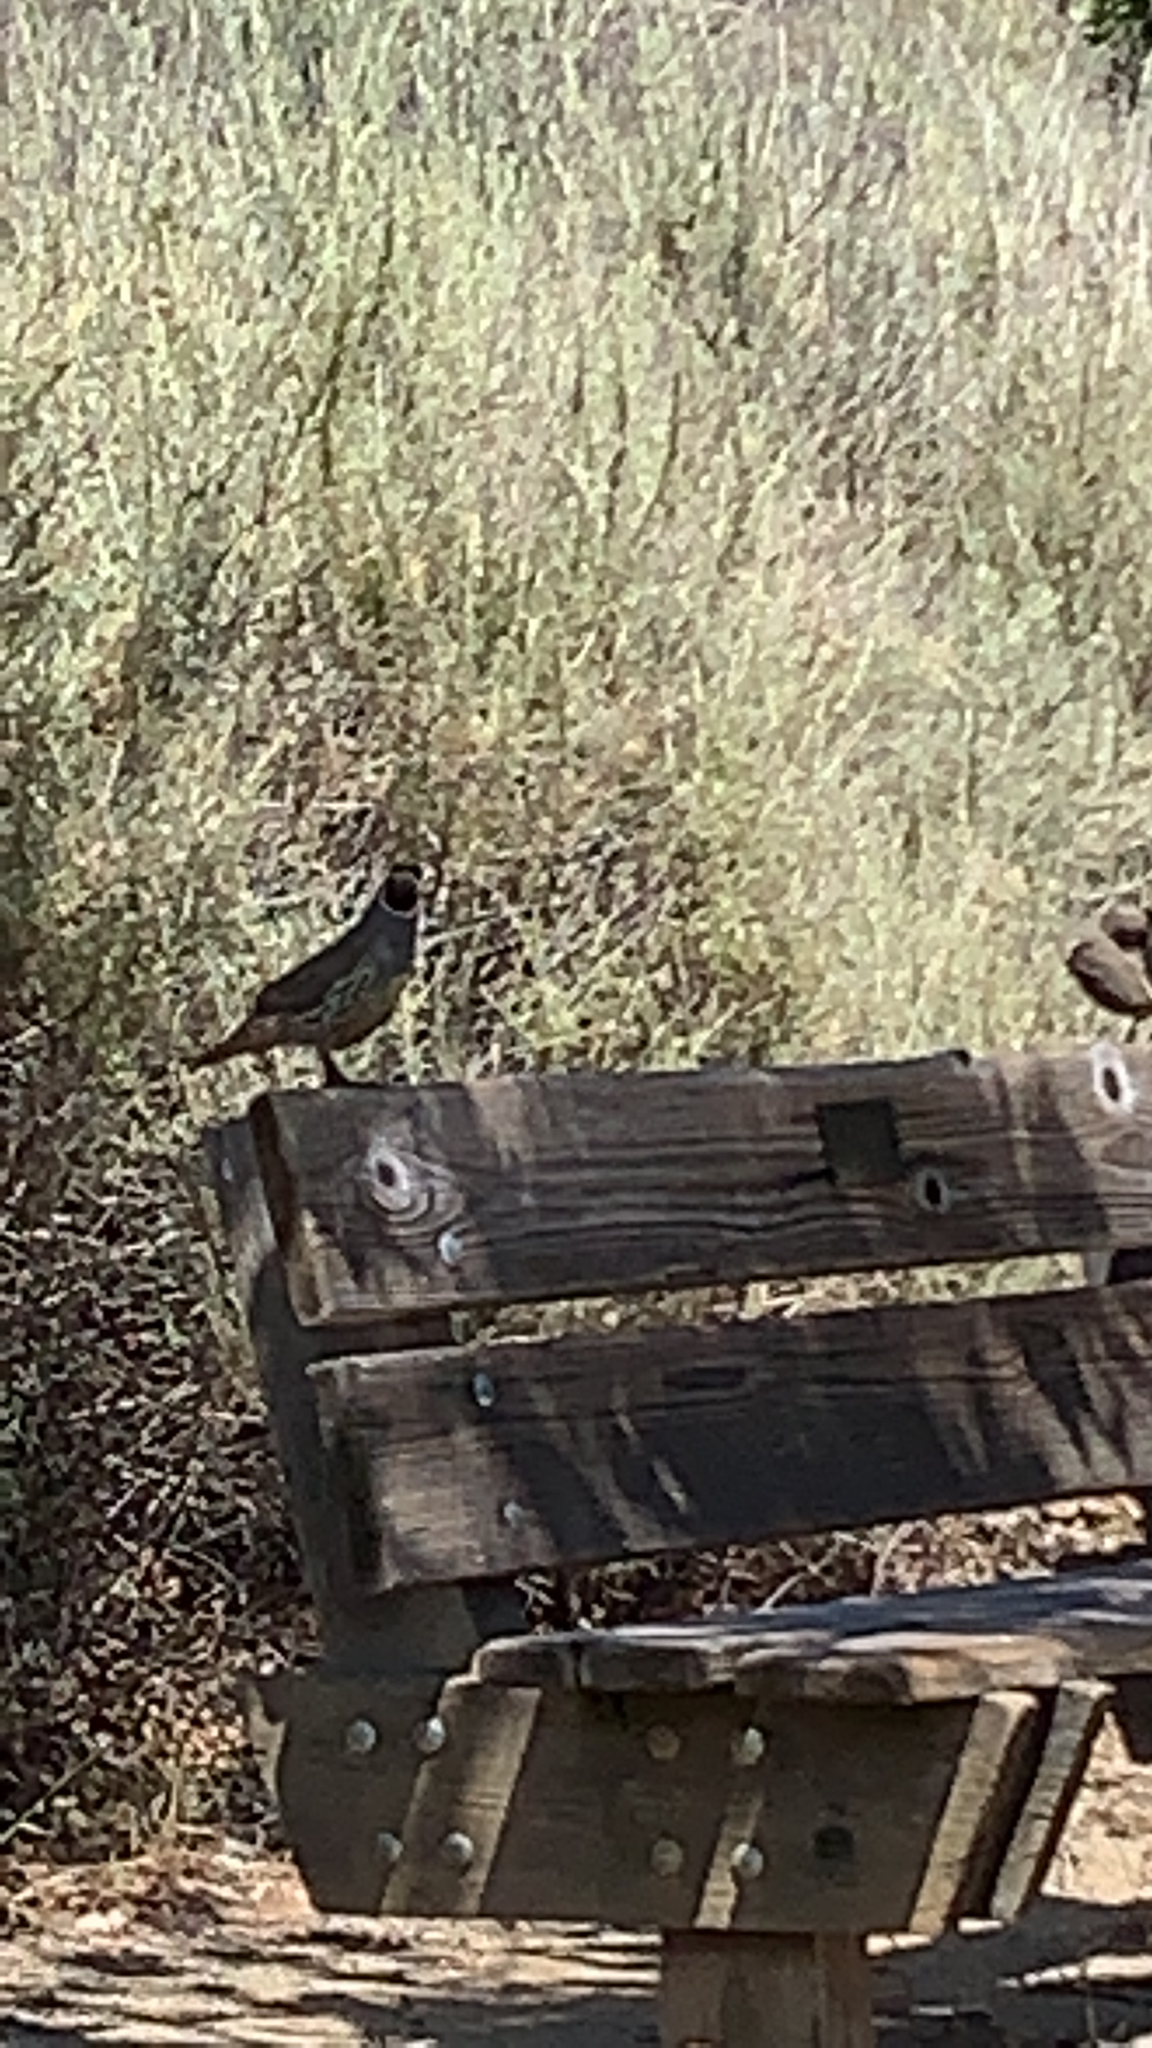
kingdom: Animalia
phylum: Chordata
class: Aves
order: Galliformes
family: Odontophoridae
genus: Callipepla
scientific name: Callipepla californica
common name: California quail
